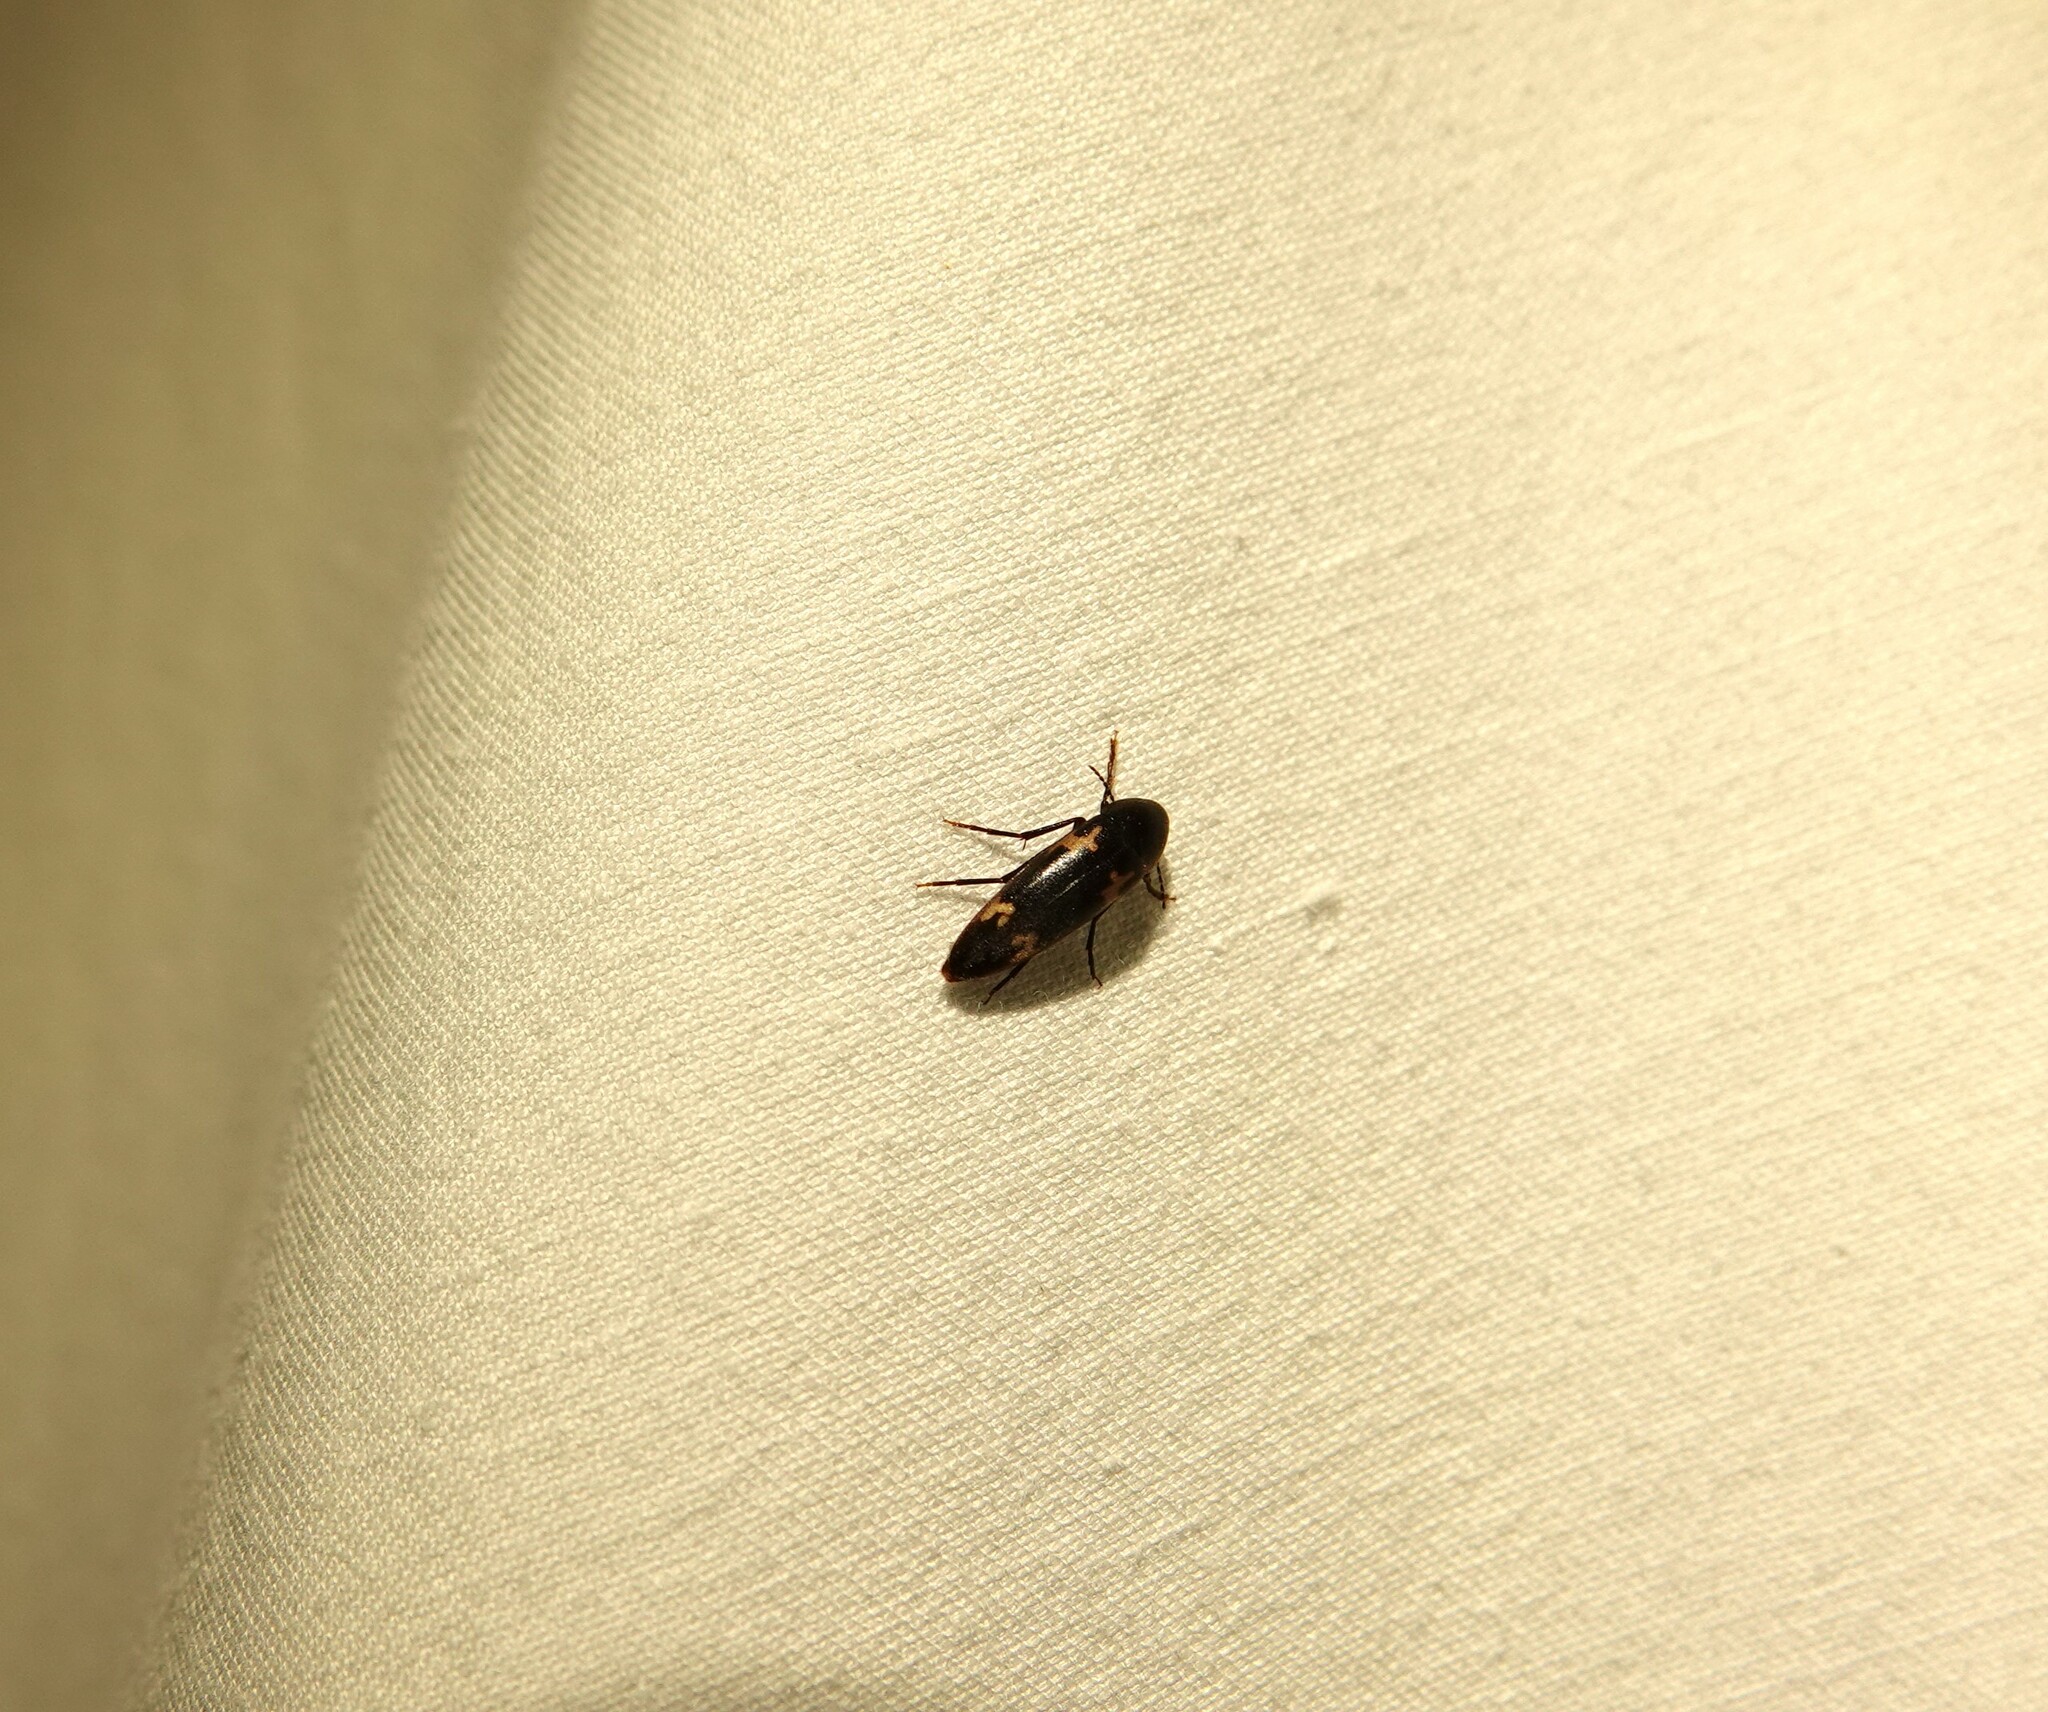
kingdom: Animalia
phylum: Arthropoda
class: Insecta
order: Coleoptera
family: Melandryidae
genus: Dircaea
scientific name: Dircaea liturata
